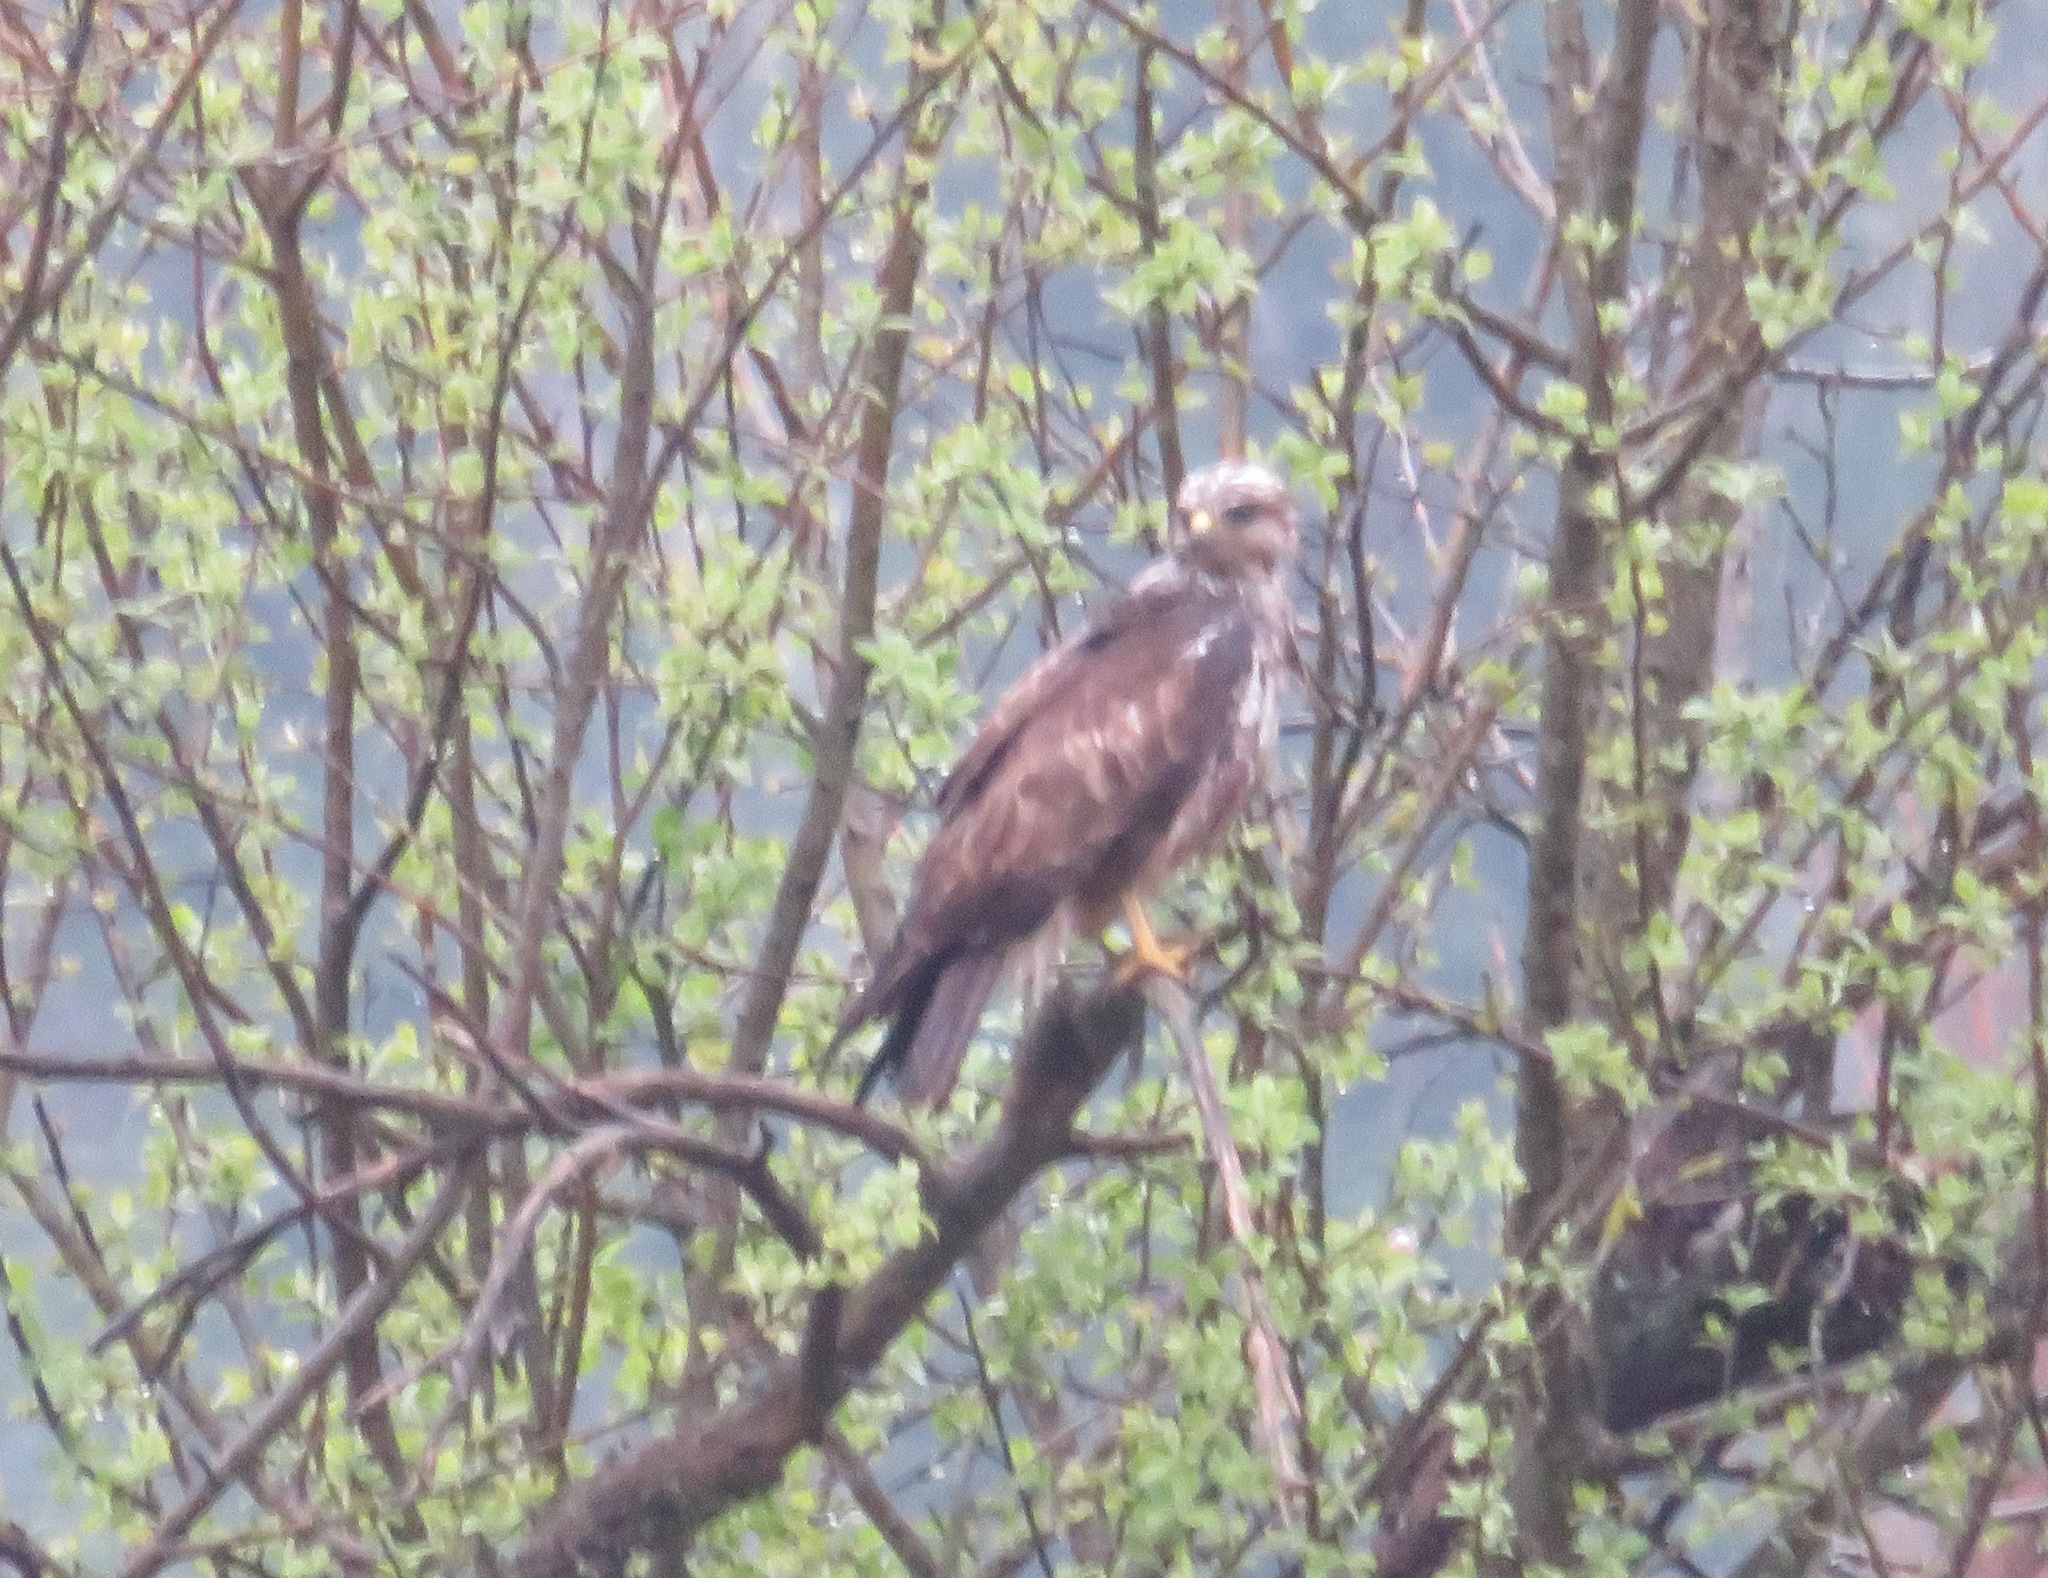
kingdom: Animalia
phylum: Chordata
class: Aves
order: Accipitriformes
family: Accipitridae
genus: Buteo
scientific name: Buteo buteo
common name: Common buzzard
